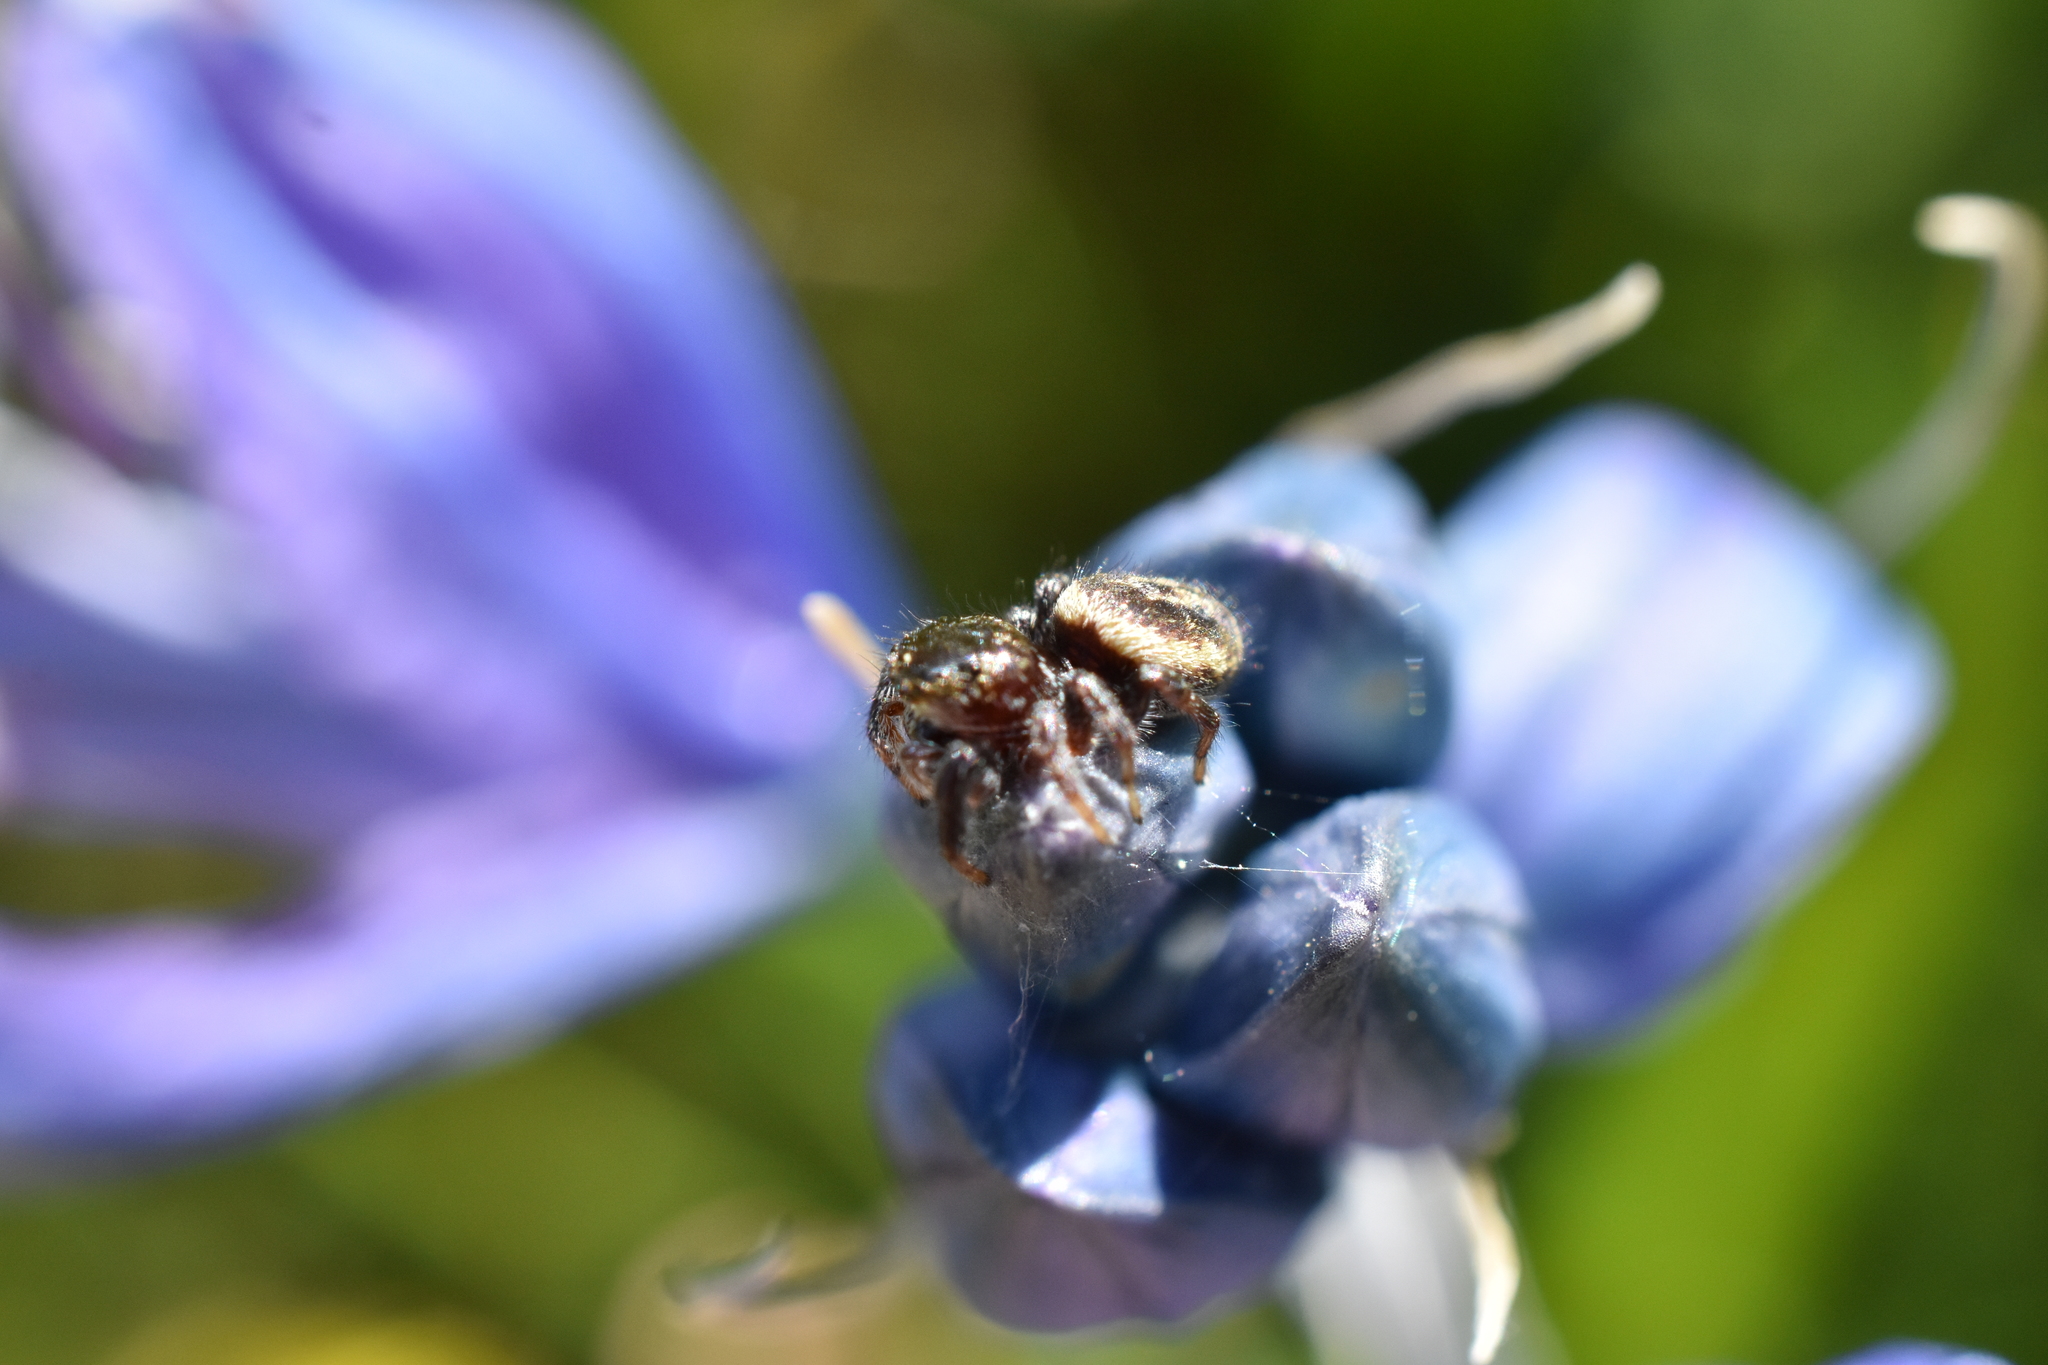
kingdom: Animalia
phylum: Arthropoda
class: Arachnida
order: Araneae
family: Salticidae
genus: Metaphidippus
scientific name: Metaphidippus manni
